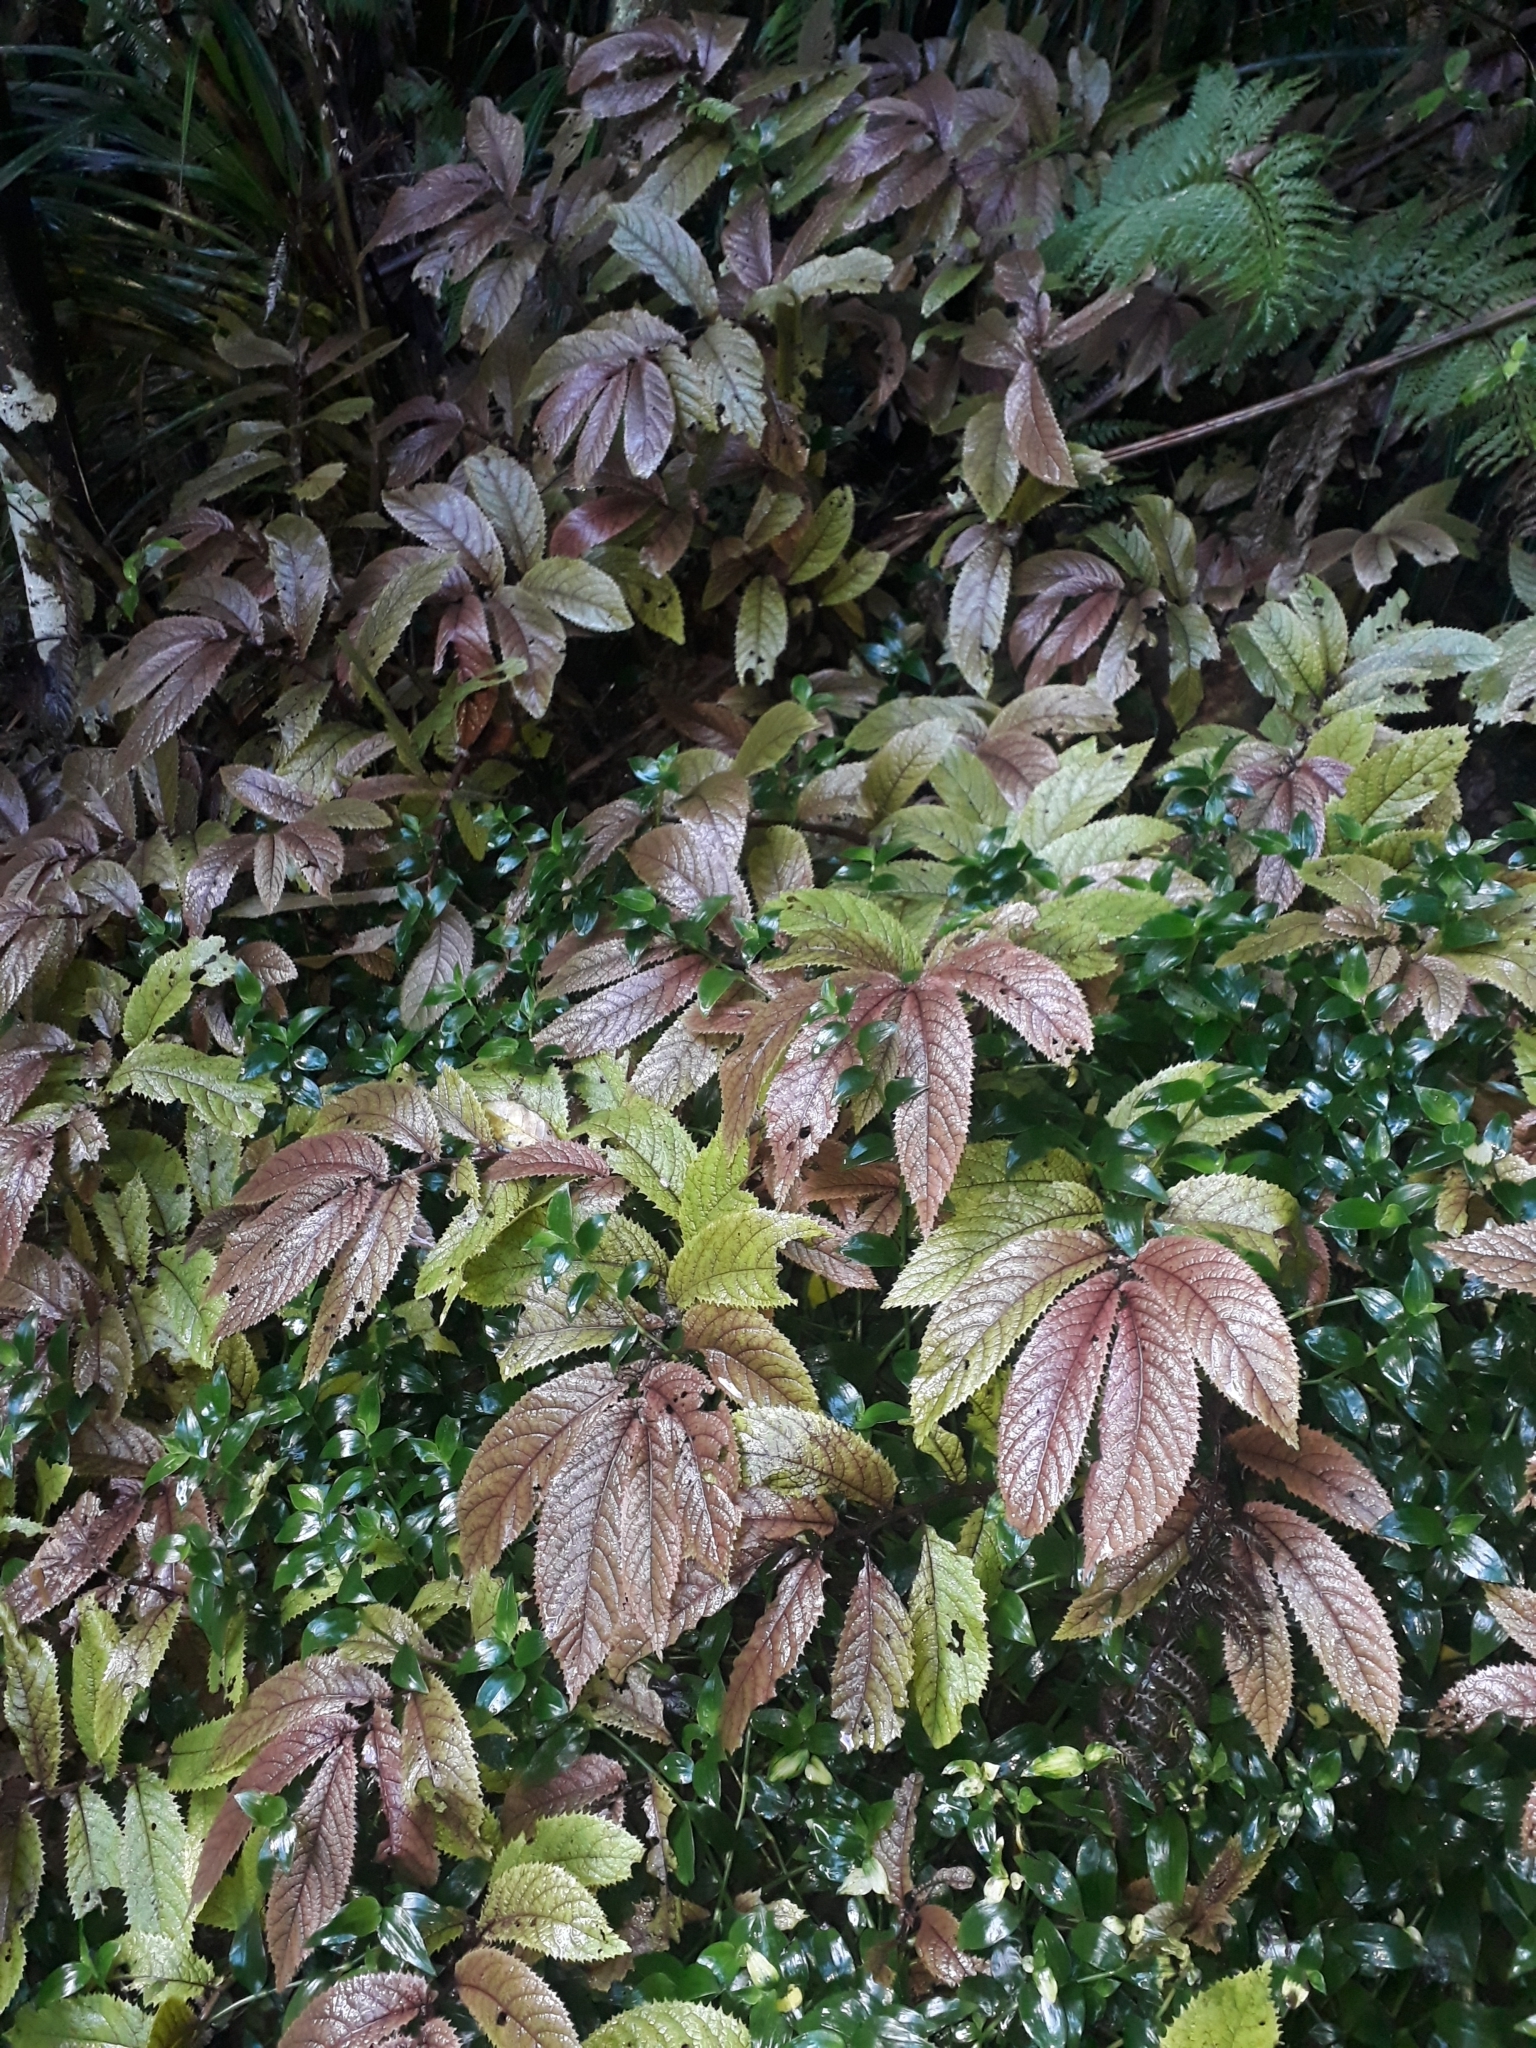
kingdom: Plantae
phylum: Tracheophyta
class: Magnoliopsida
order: Rosales
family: Urticaceae
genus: Elatostema
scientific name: Elatostema rugosum
